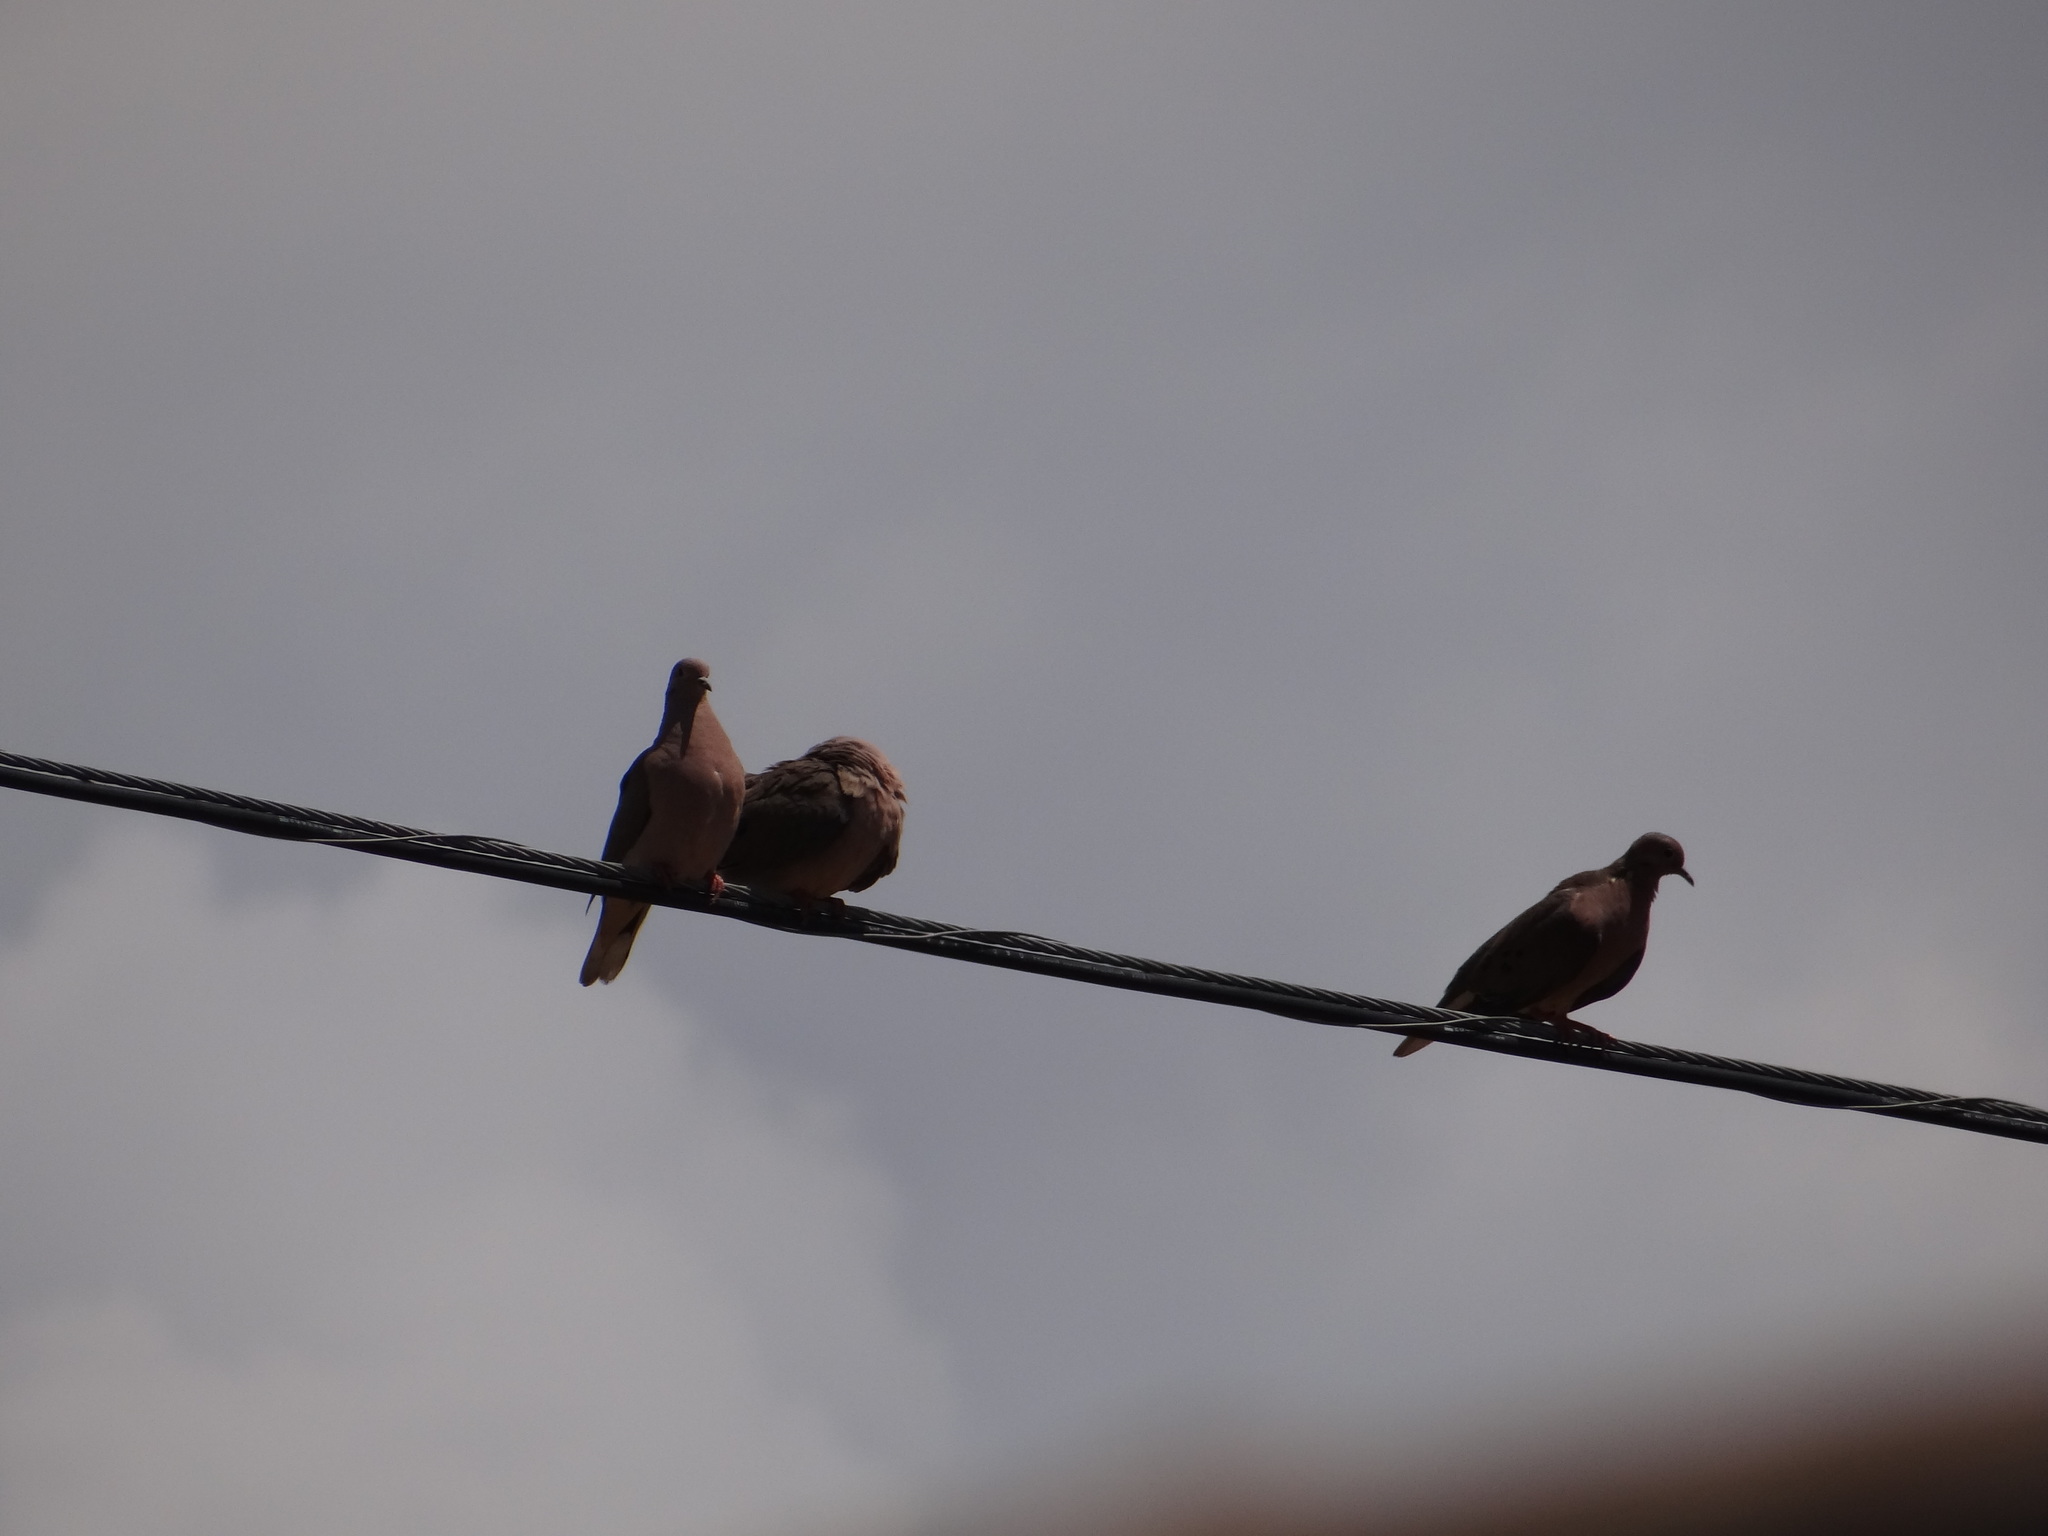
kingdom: Animalia
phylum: Chordata
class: Aves
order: Columbiformes
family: Columbidae
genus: Zenaida
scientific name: Zenaida auriculata
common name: Eared dove
